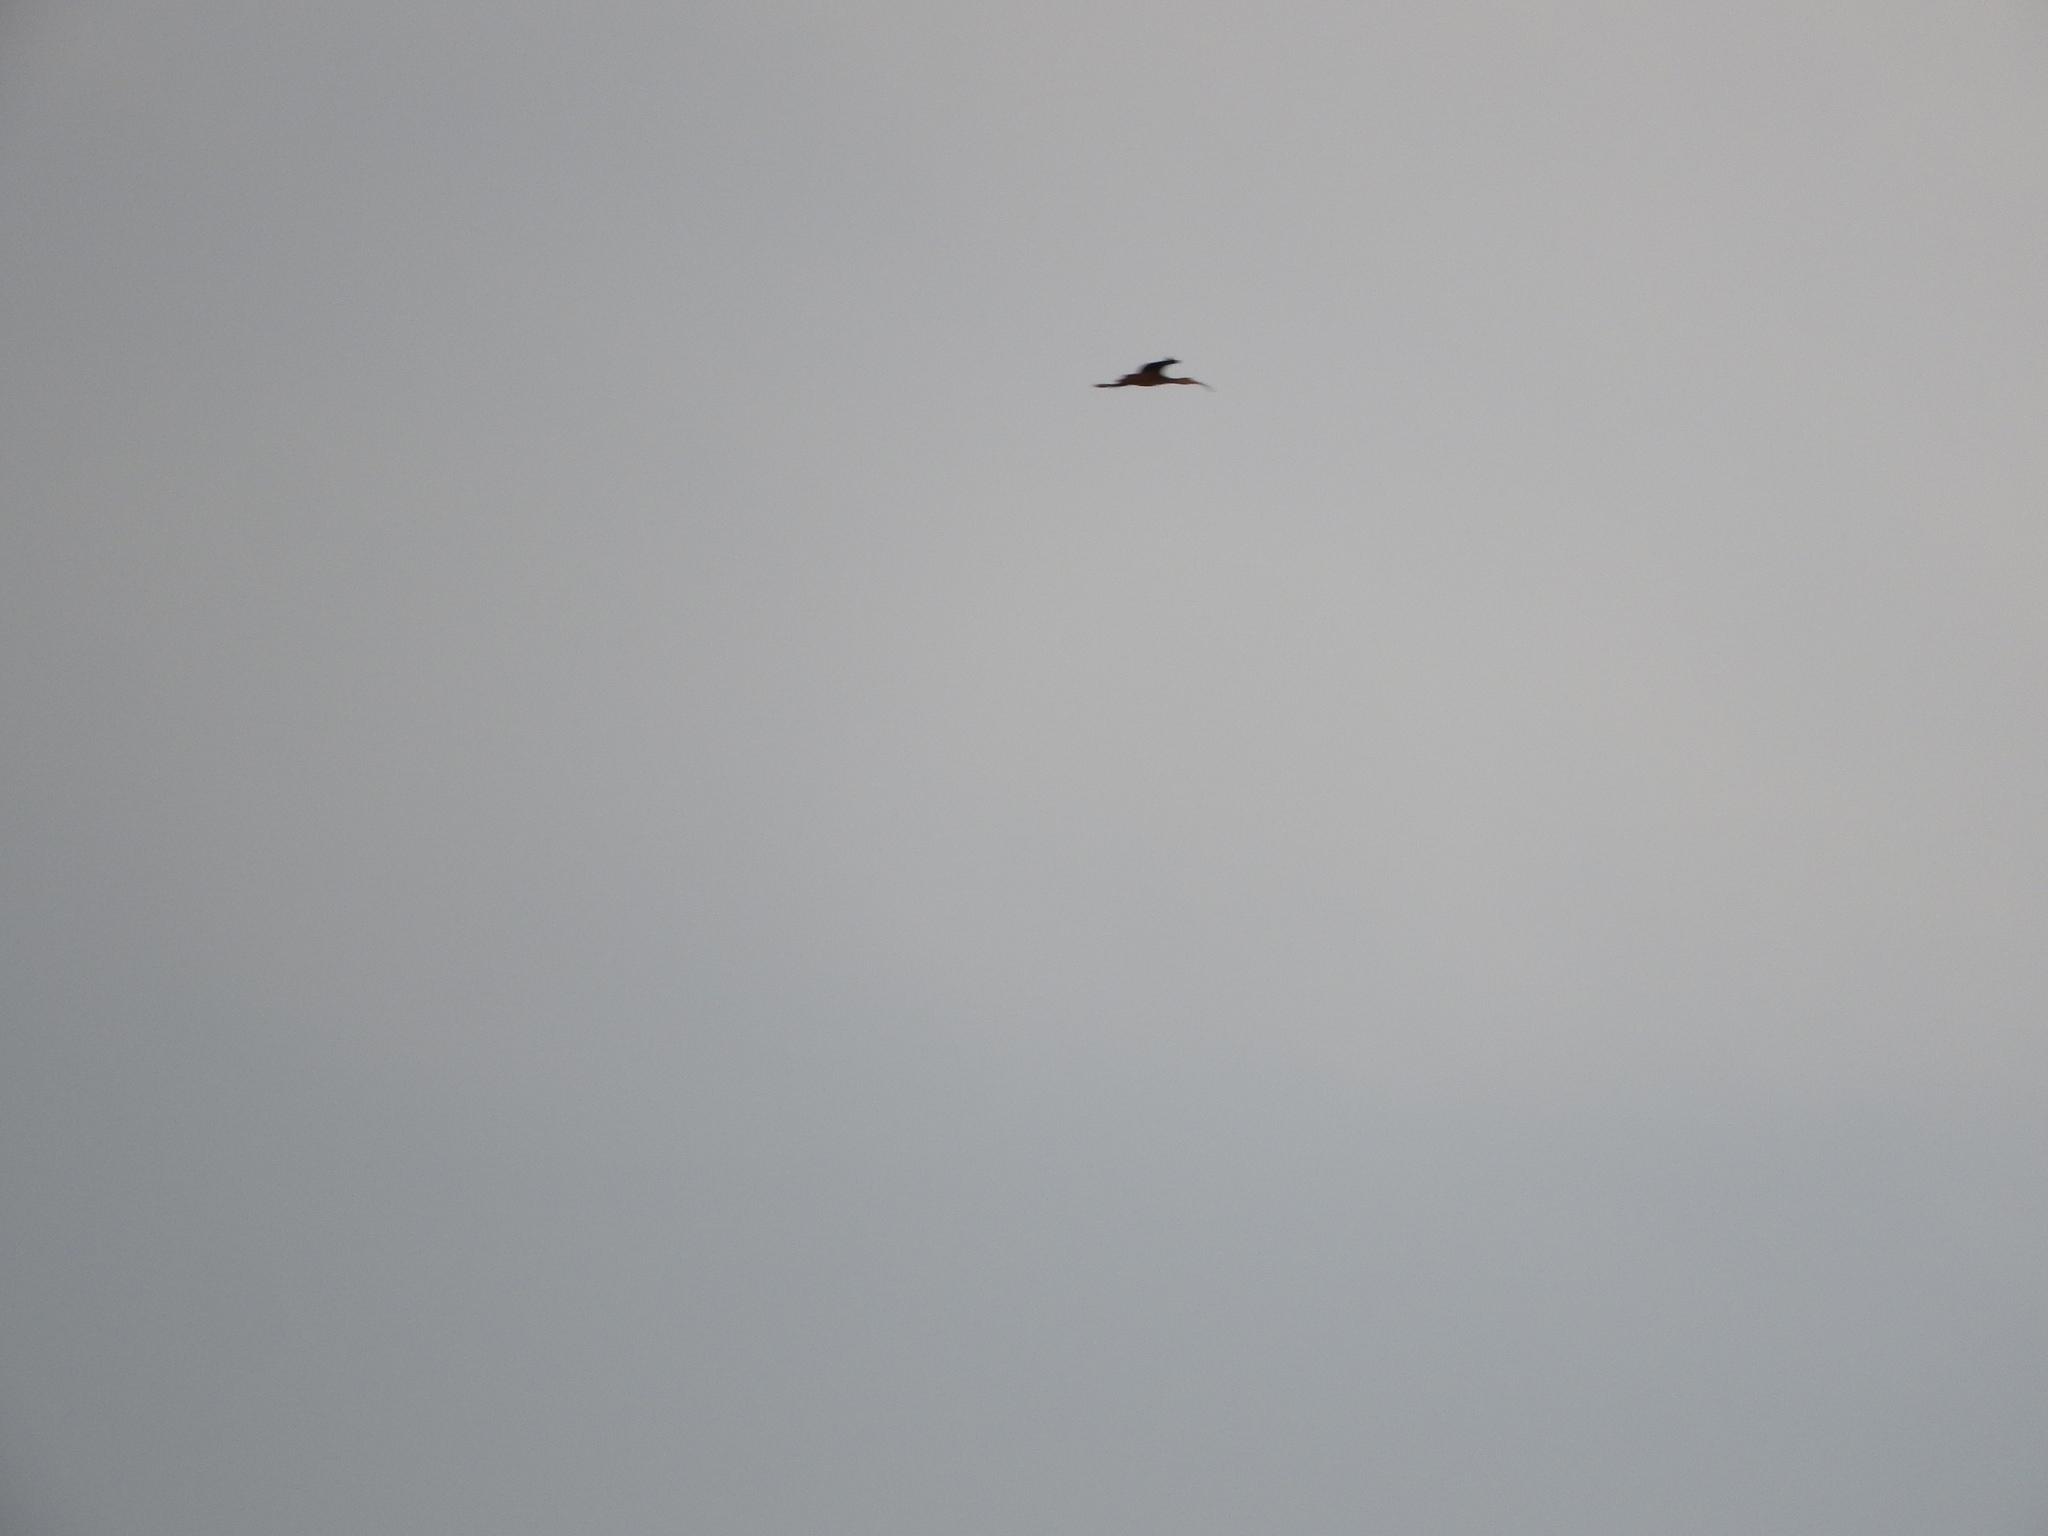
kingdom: Animalia
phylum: Chordata
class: Aves
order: Pelecaniformes
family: Threskiornithidae
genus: Plegadis
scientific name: Plegadis chihi
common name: White-faced ibis
